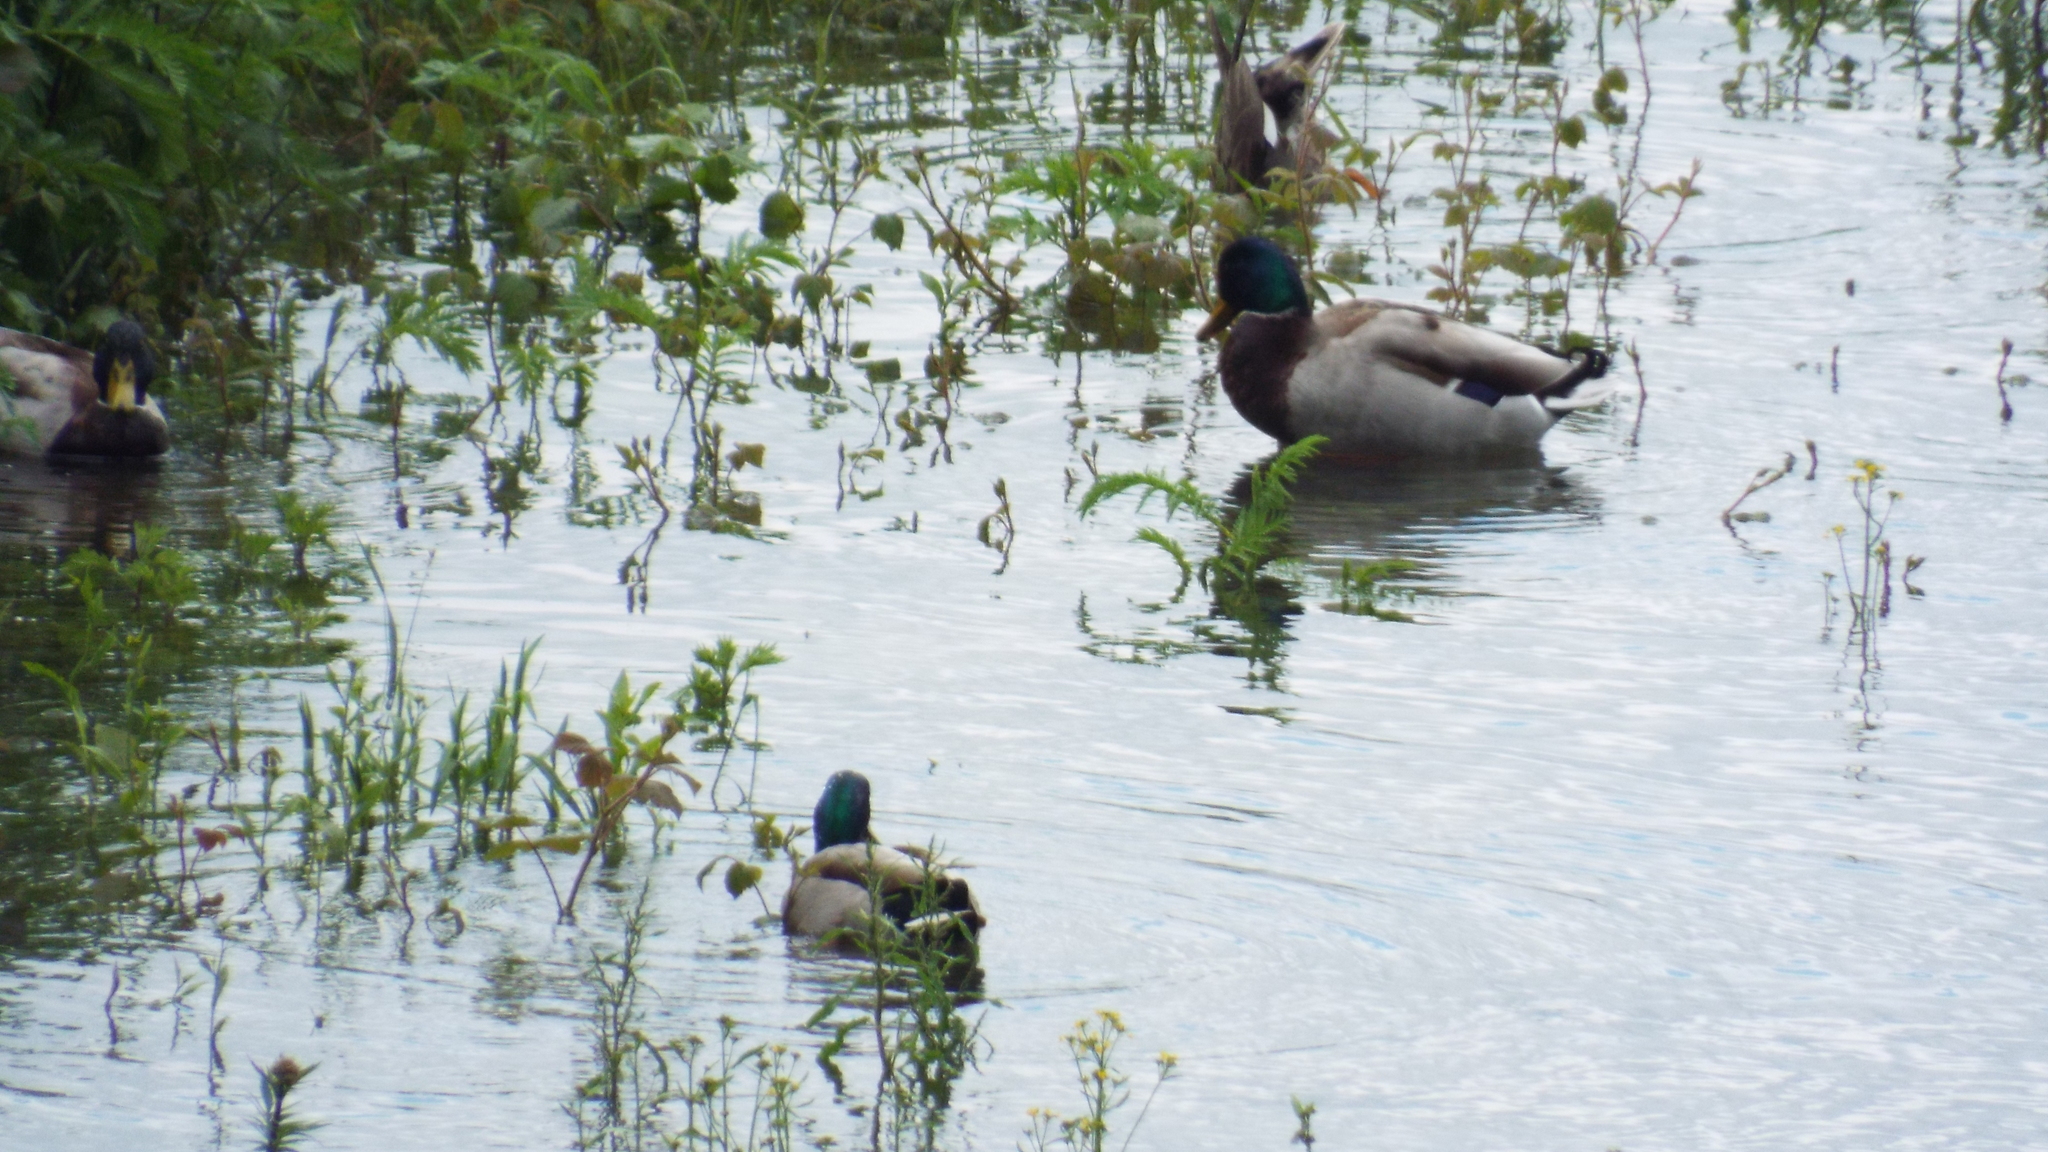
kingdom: Animalia
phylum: Chordata
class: Aves
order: Anseriformes
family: Anatidae
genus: Mareca
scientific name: Mareca strepera
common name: Gadwall
